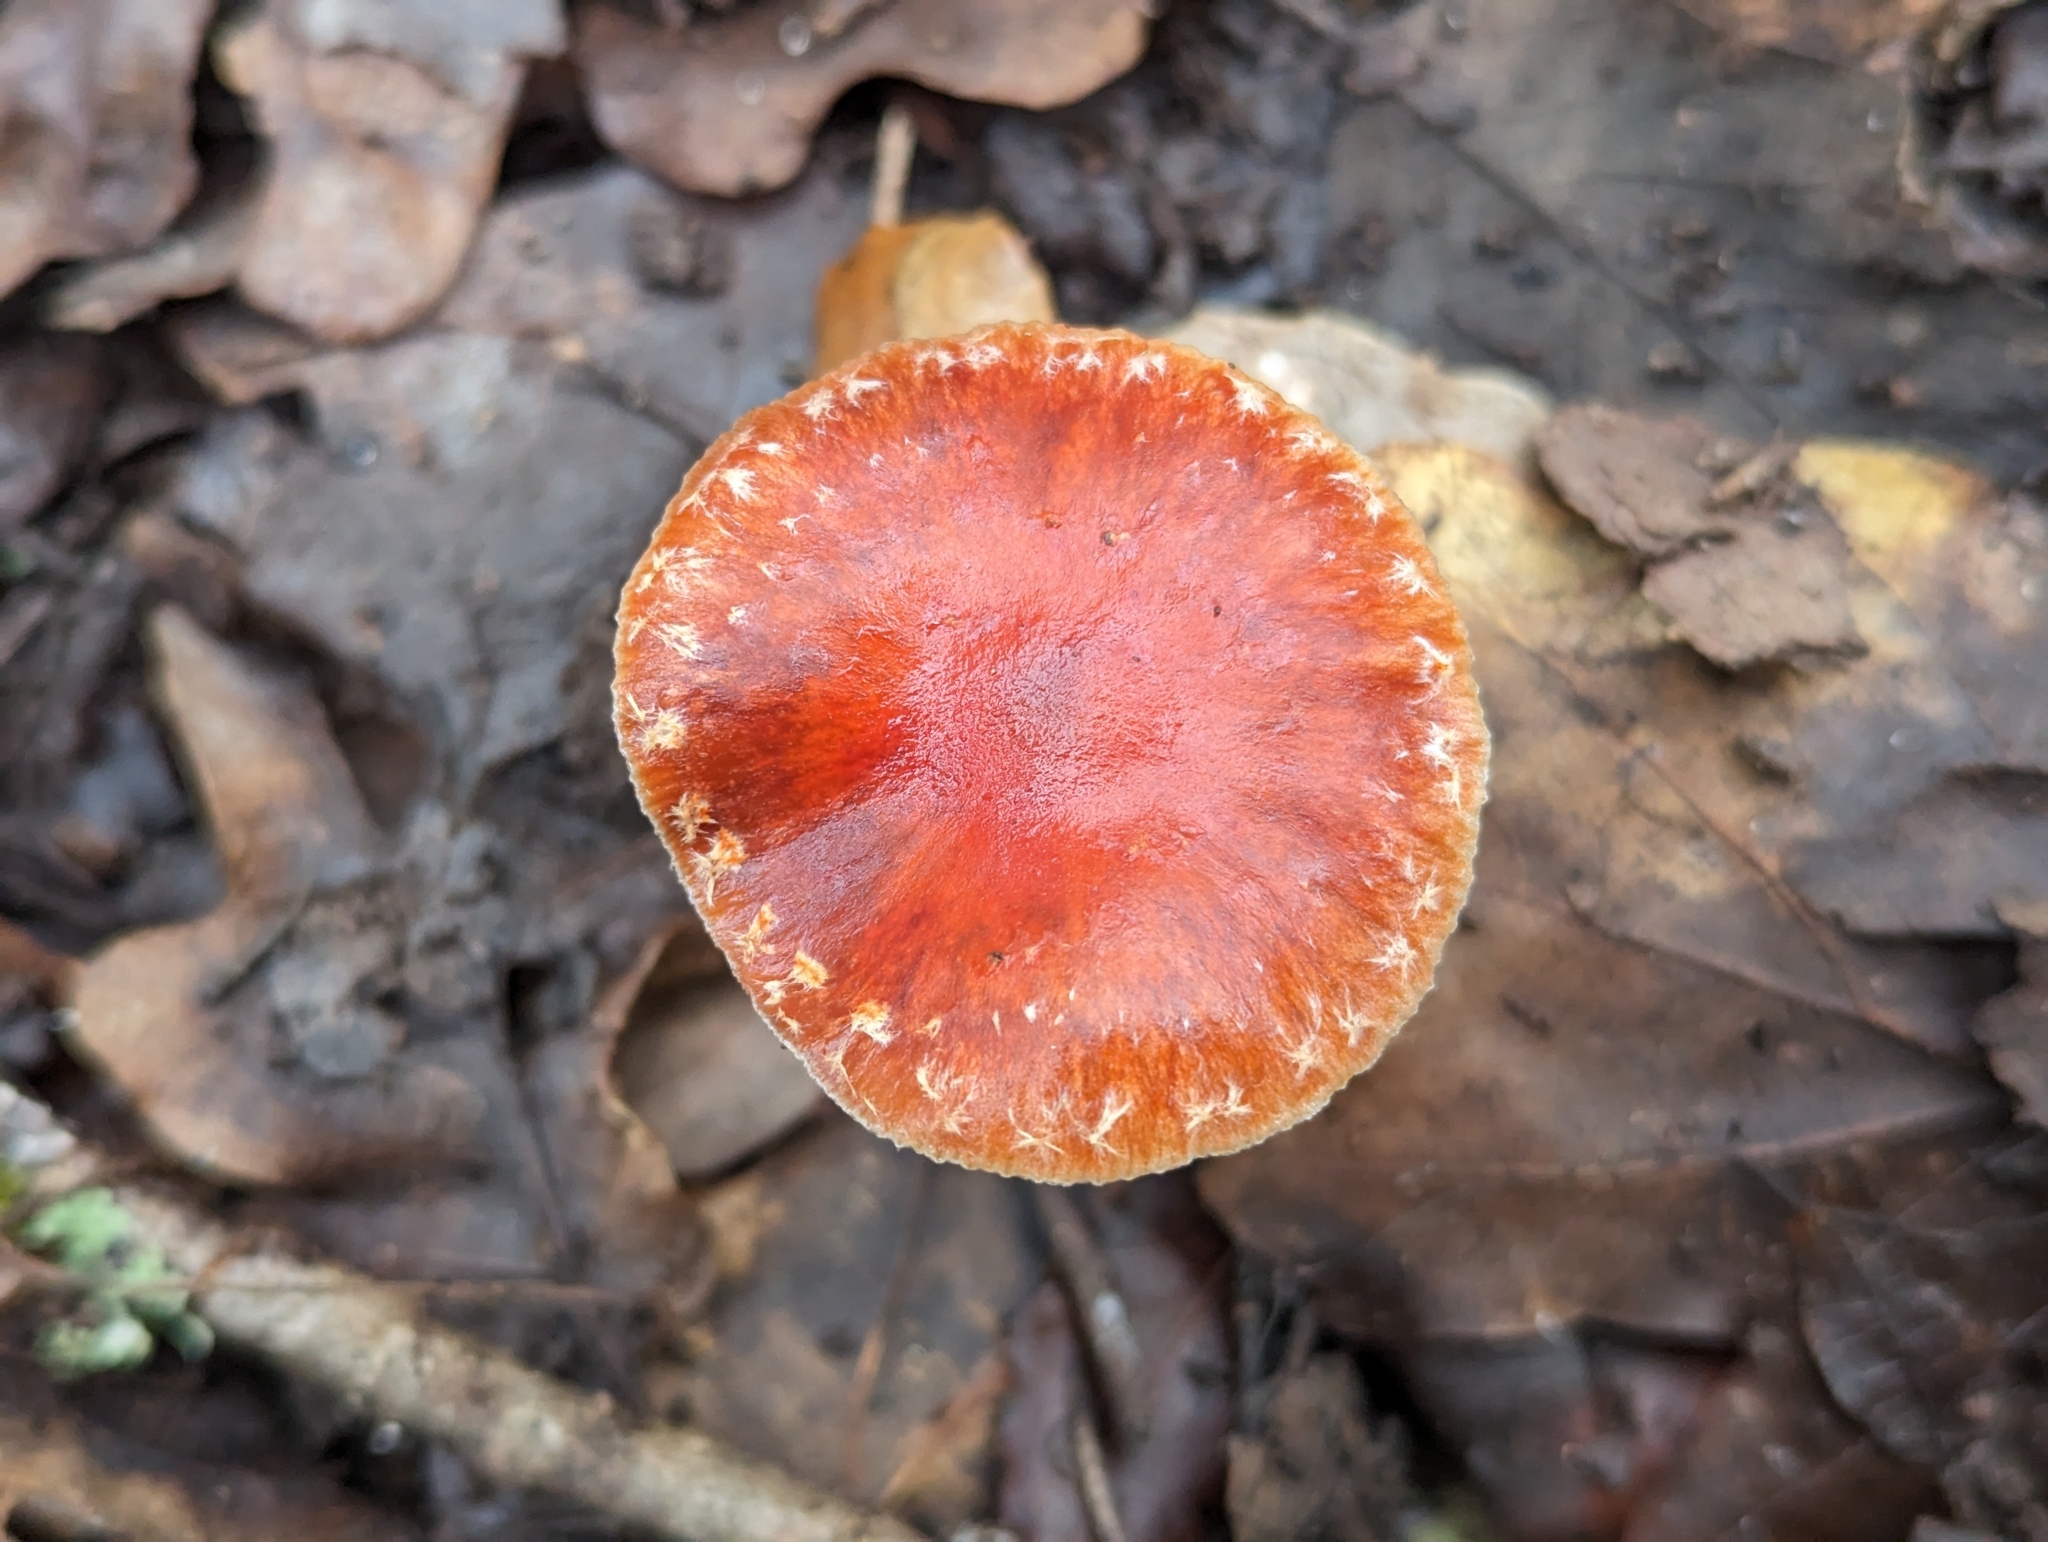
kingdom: Fungi
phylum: Basidiomycota
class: Agaricomycetes
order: Agaricales
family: Strophariaceae
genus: Leratiomyces
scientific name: Leratiomyces ceres
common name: Redlead roundhead
